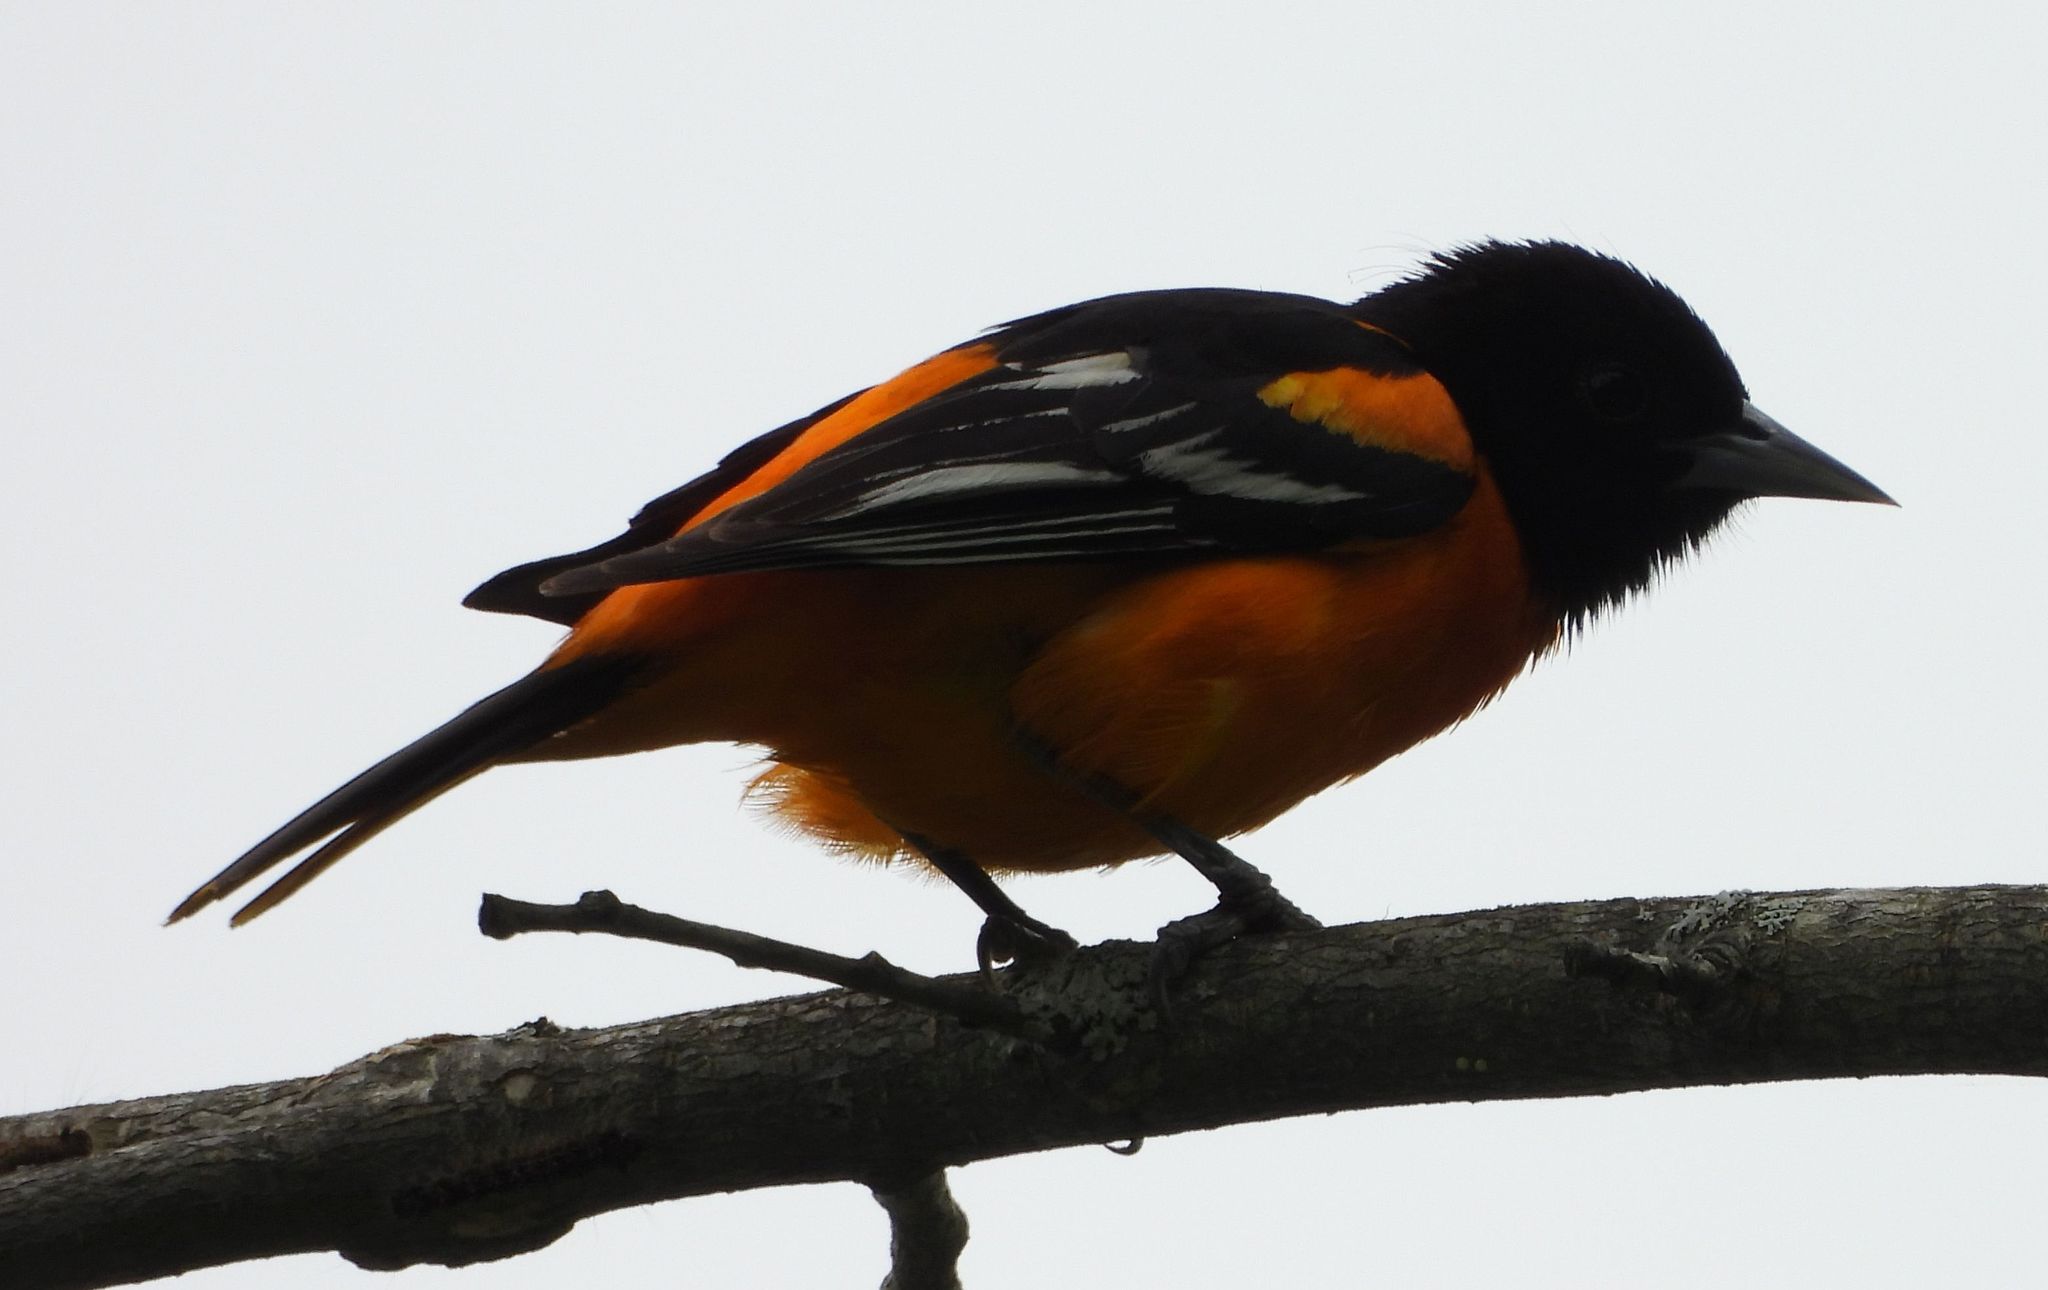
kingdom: Animalia
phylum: Chordata
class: Aves
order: Passeriformes
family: Icteridae
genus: Icterus
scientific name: Icterus galbula
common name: Baltimore oriole
